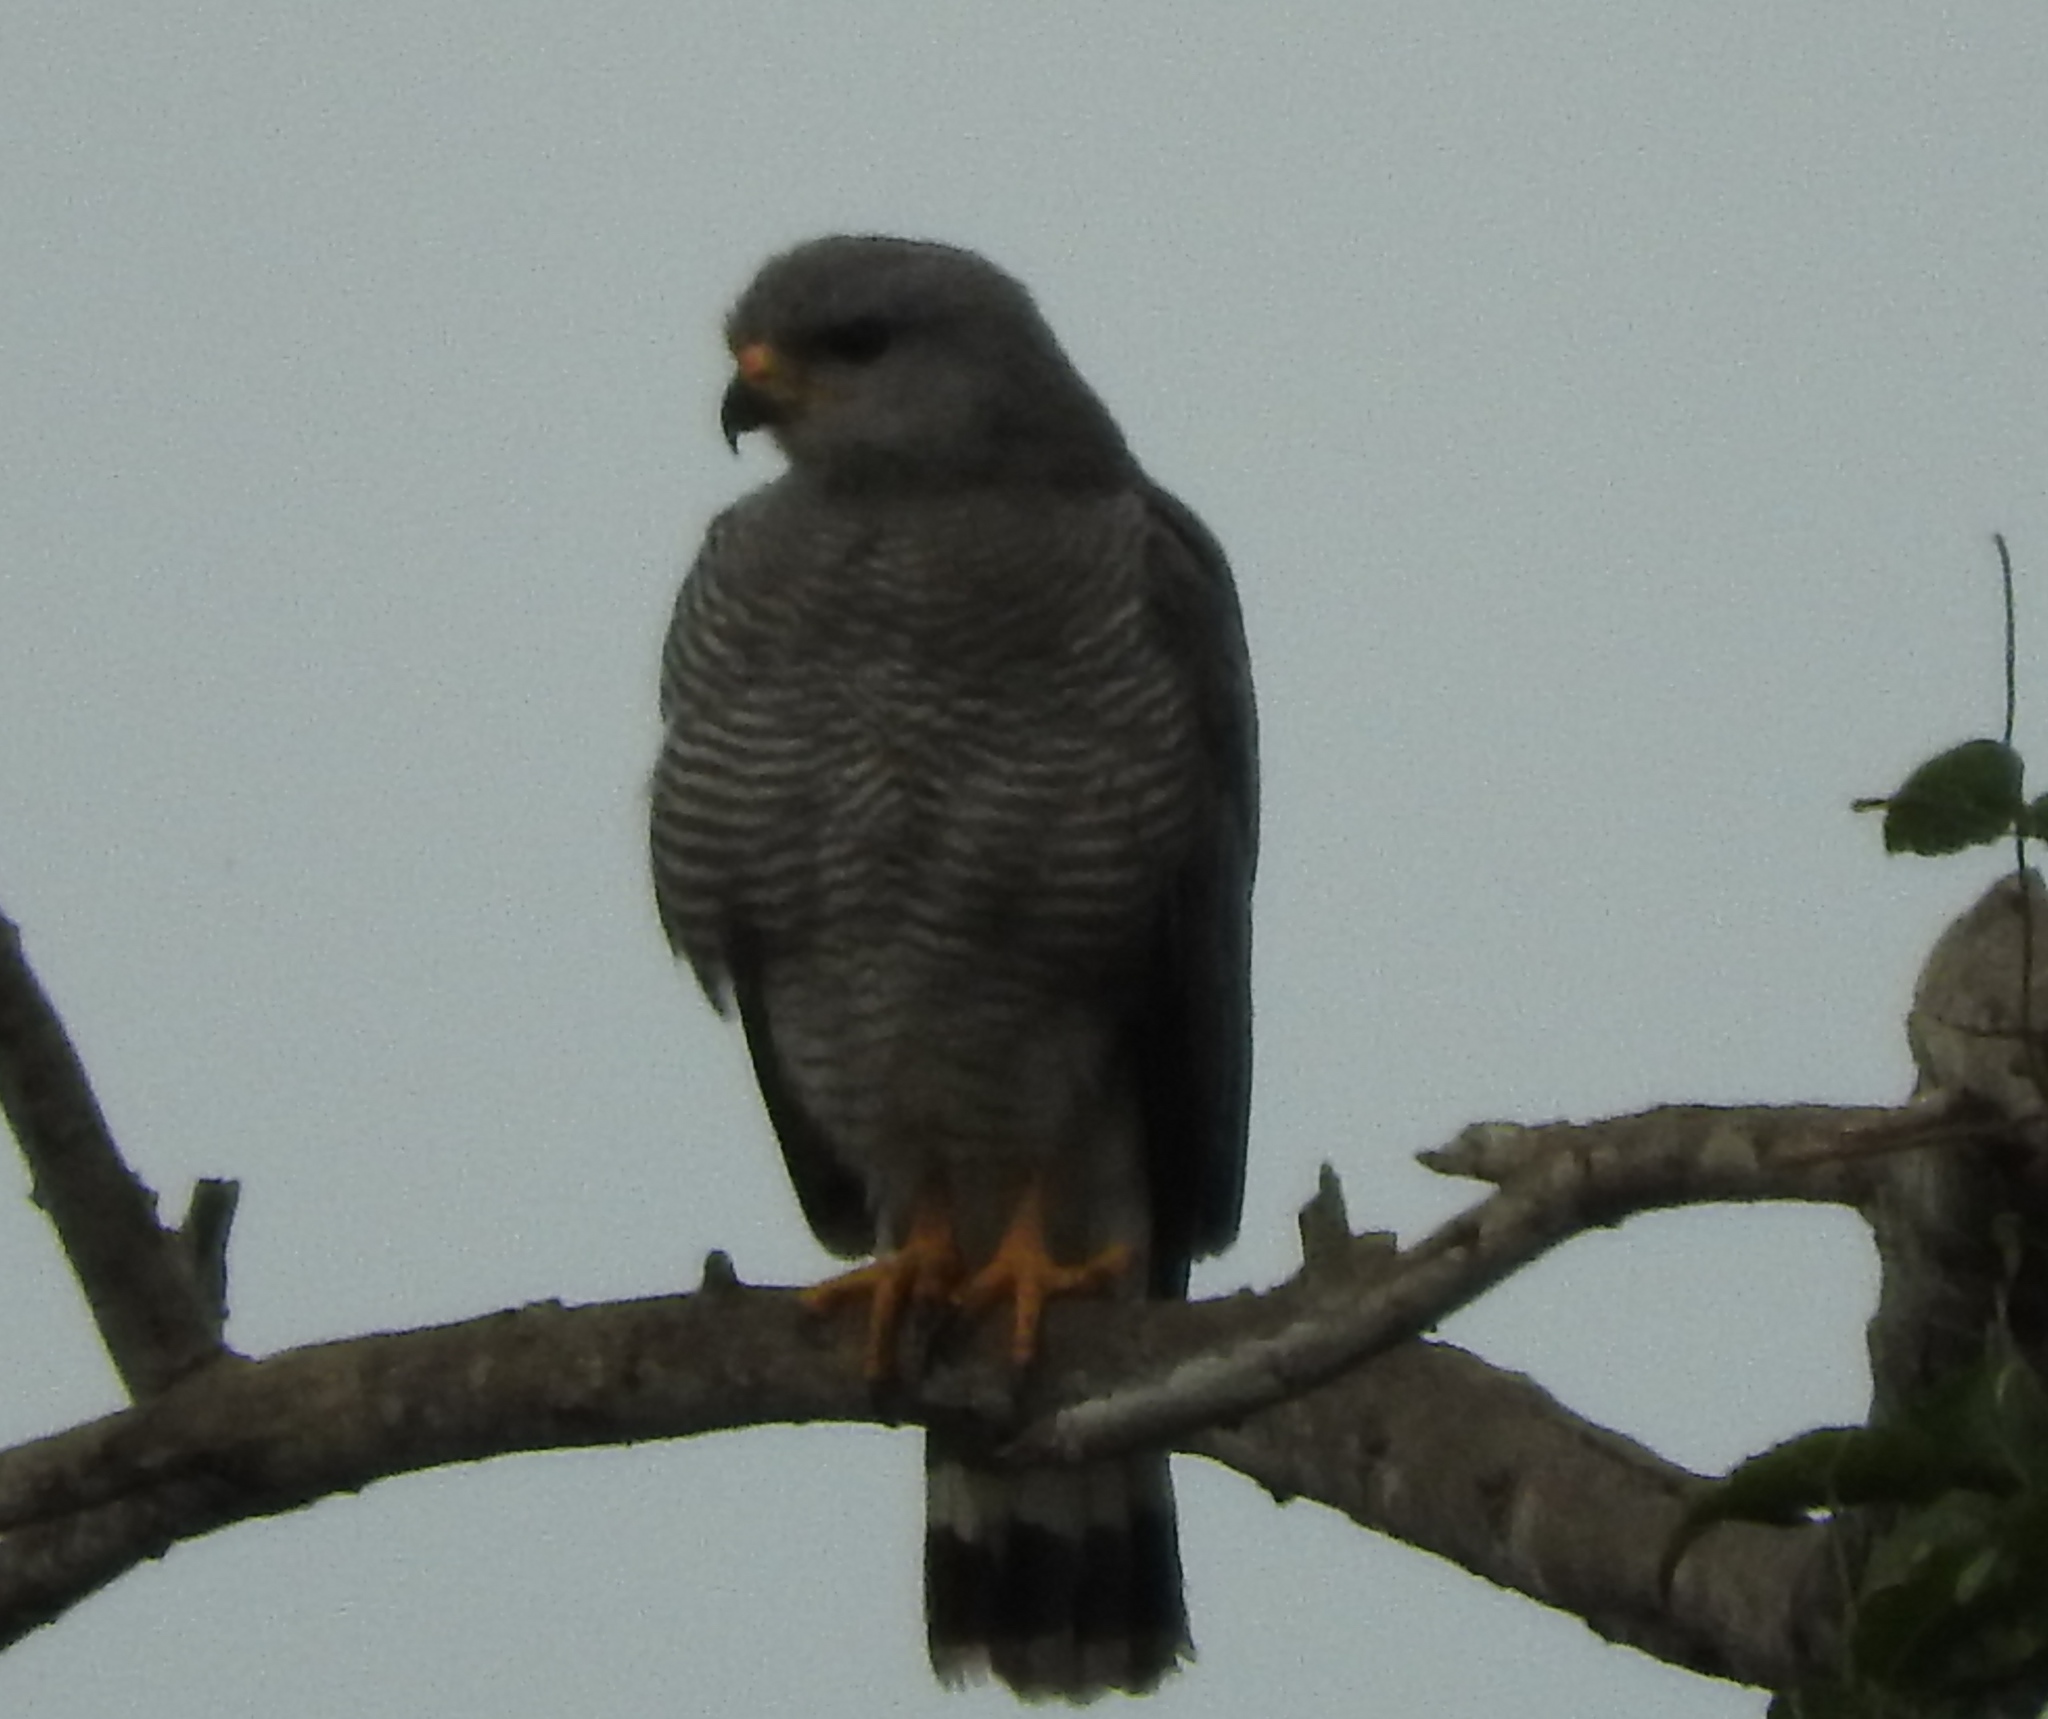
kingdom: Animalia
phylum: Chordata
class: Aves
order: Accipitriformes
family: Accipitridae
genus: Buteo
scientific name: Buteo nitidus
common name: Grey-lined hawk
